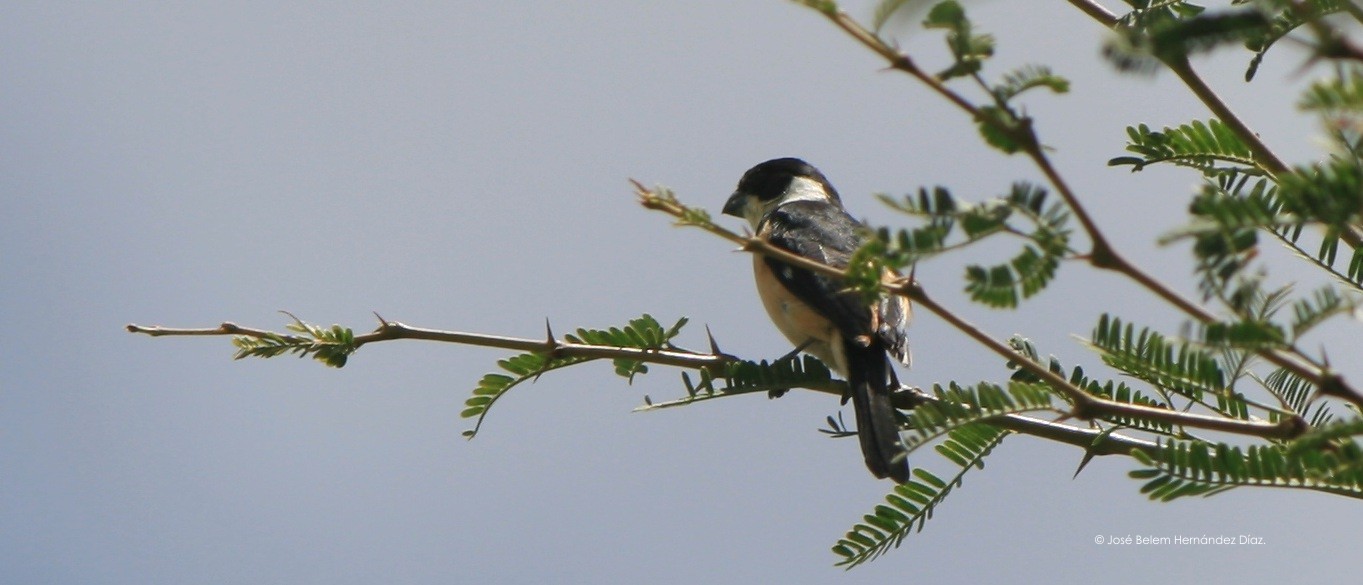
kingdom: Animalia
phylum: Chordata
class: Aves
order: Passeriformes
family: Thraupidae
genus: Sporophila
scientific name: Sporophila torqueola
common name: White-collared seedeater
